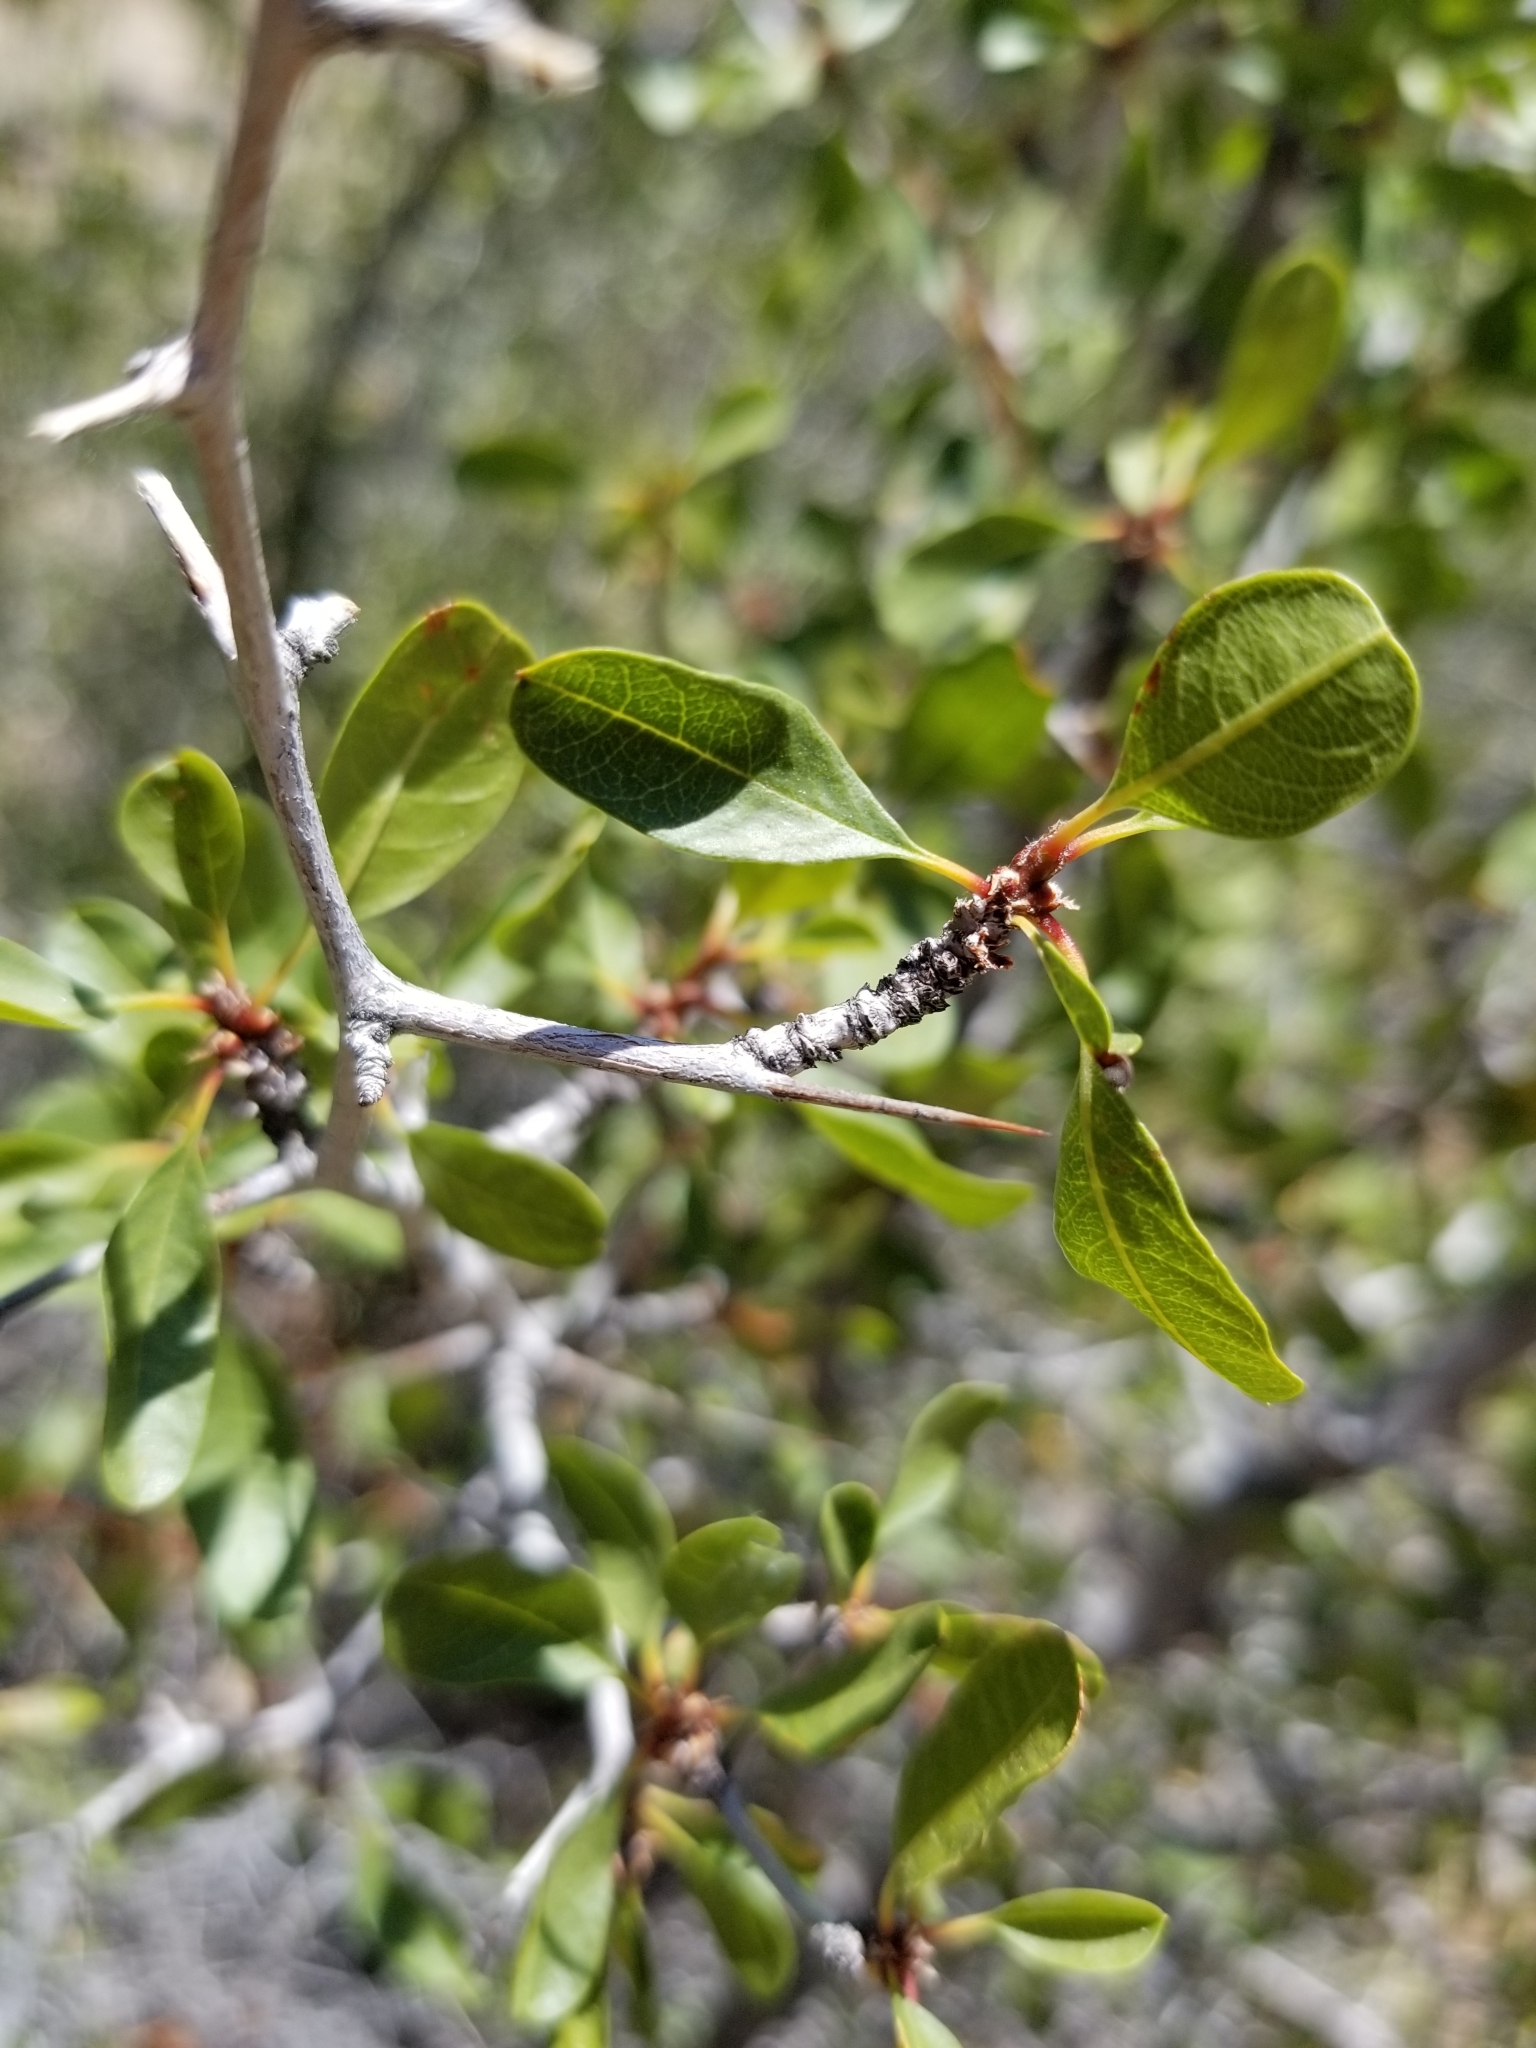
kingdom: Plantae
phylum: Tracheophyta
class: Magnoliopsida
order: Rosales
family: Rhamnaceae
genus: Pseudoziziphus
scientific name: Pseudoziziphus parryi
